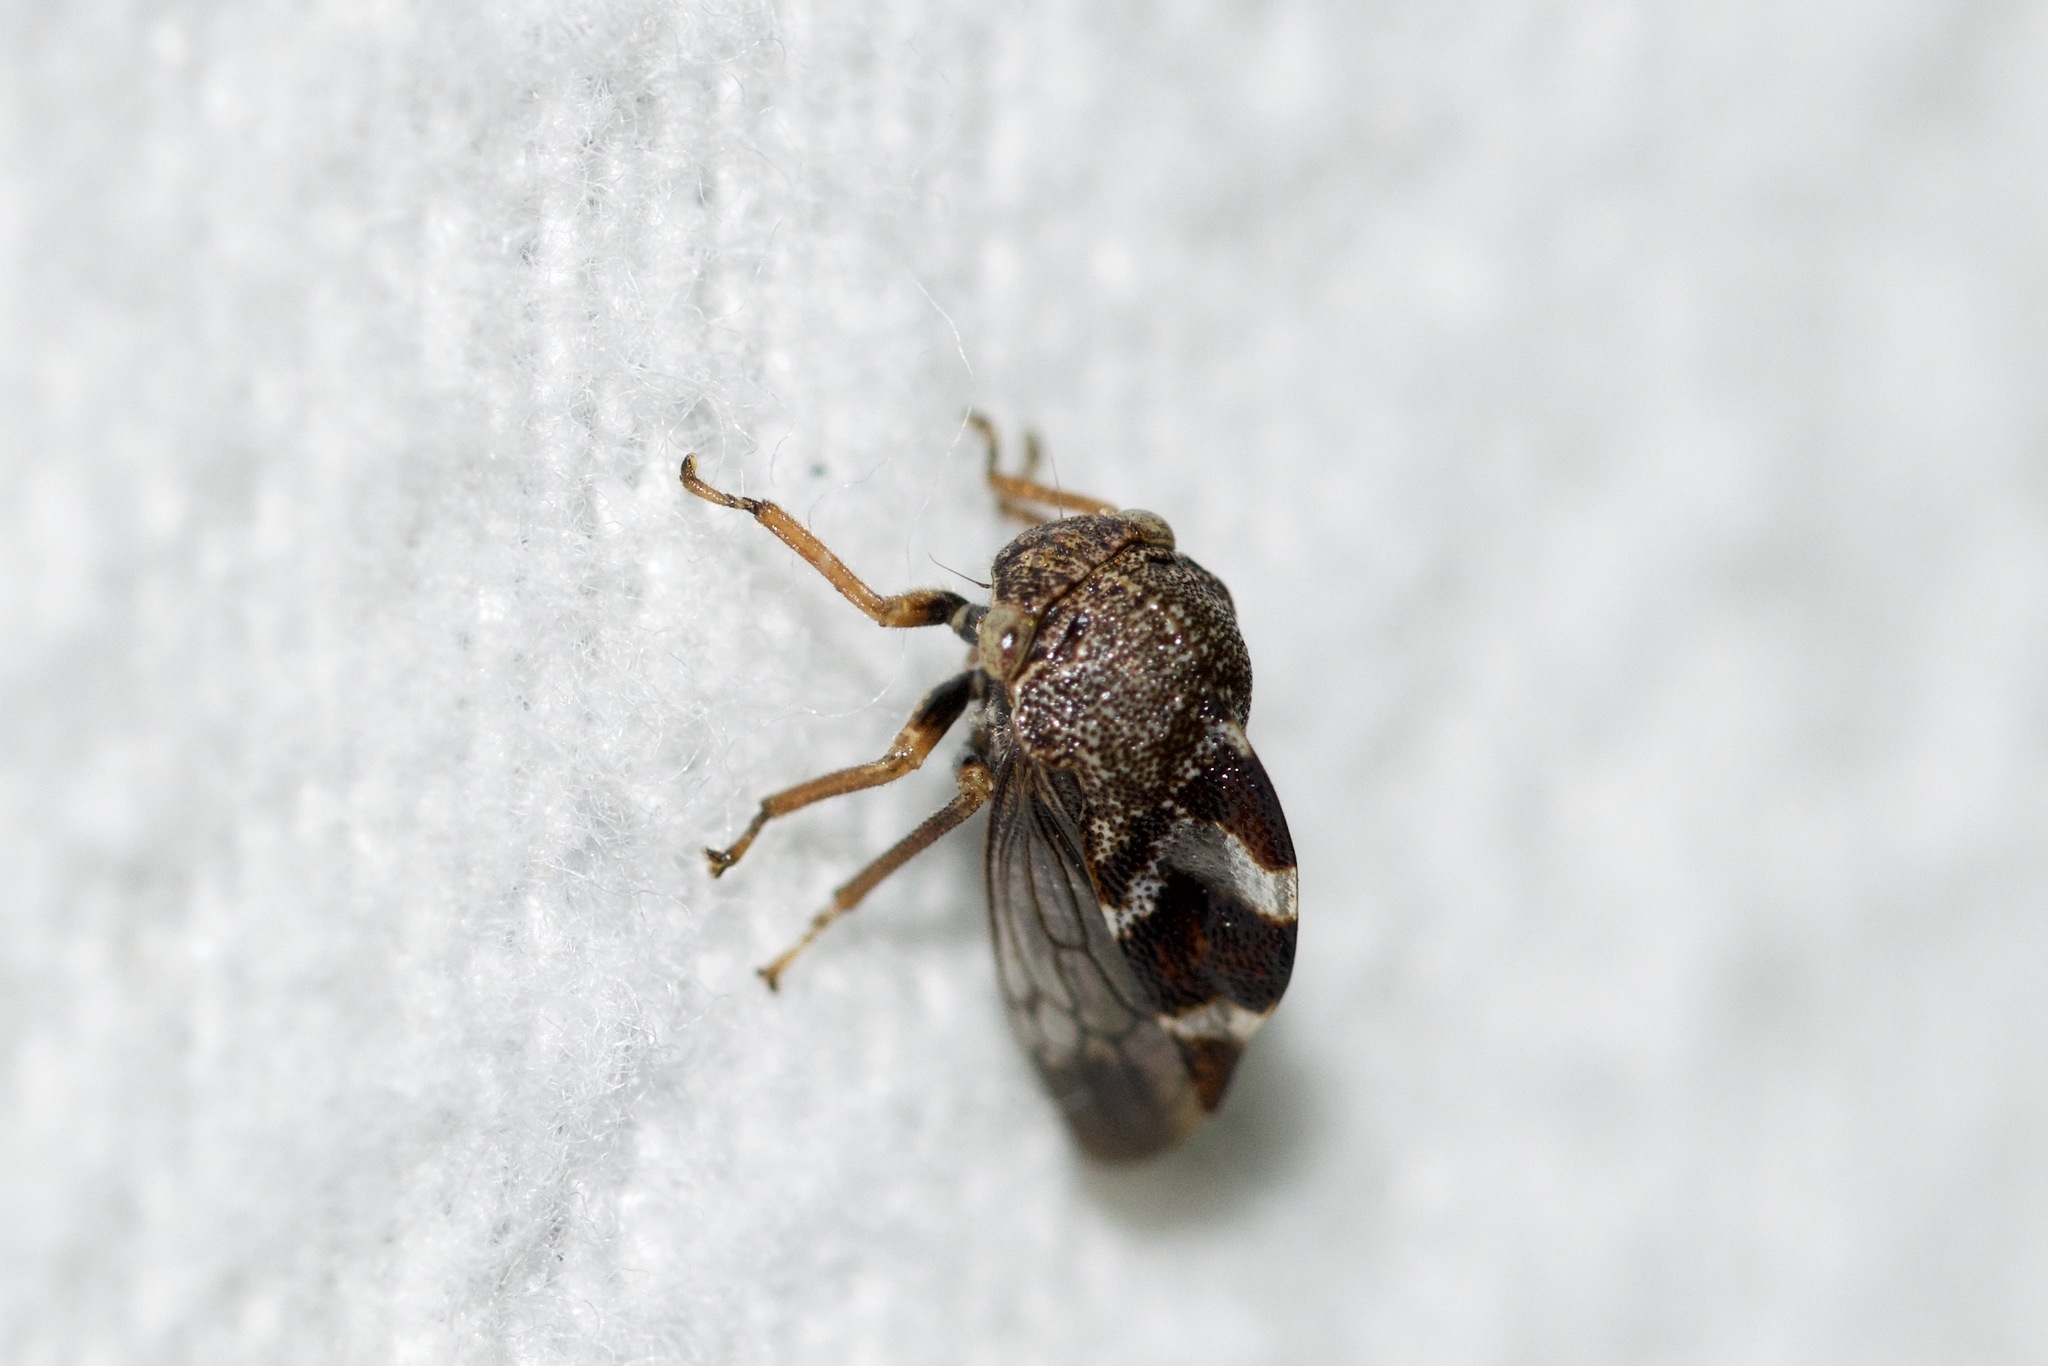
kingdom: Animalia
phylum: Arthropoda
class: Insecta
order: Hemiptera
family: Membracidae
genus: Cyrtolobus
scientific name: Cyrtolobus tuberosa
